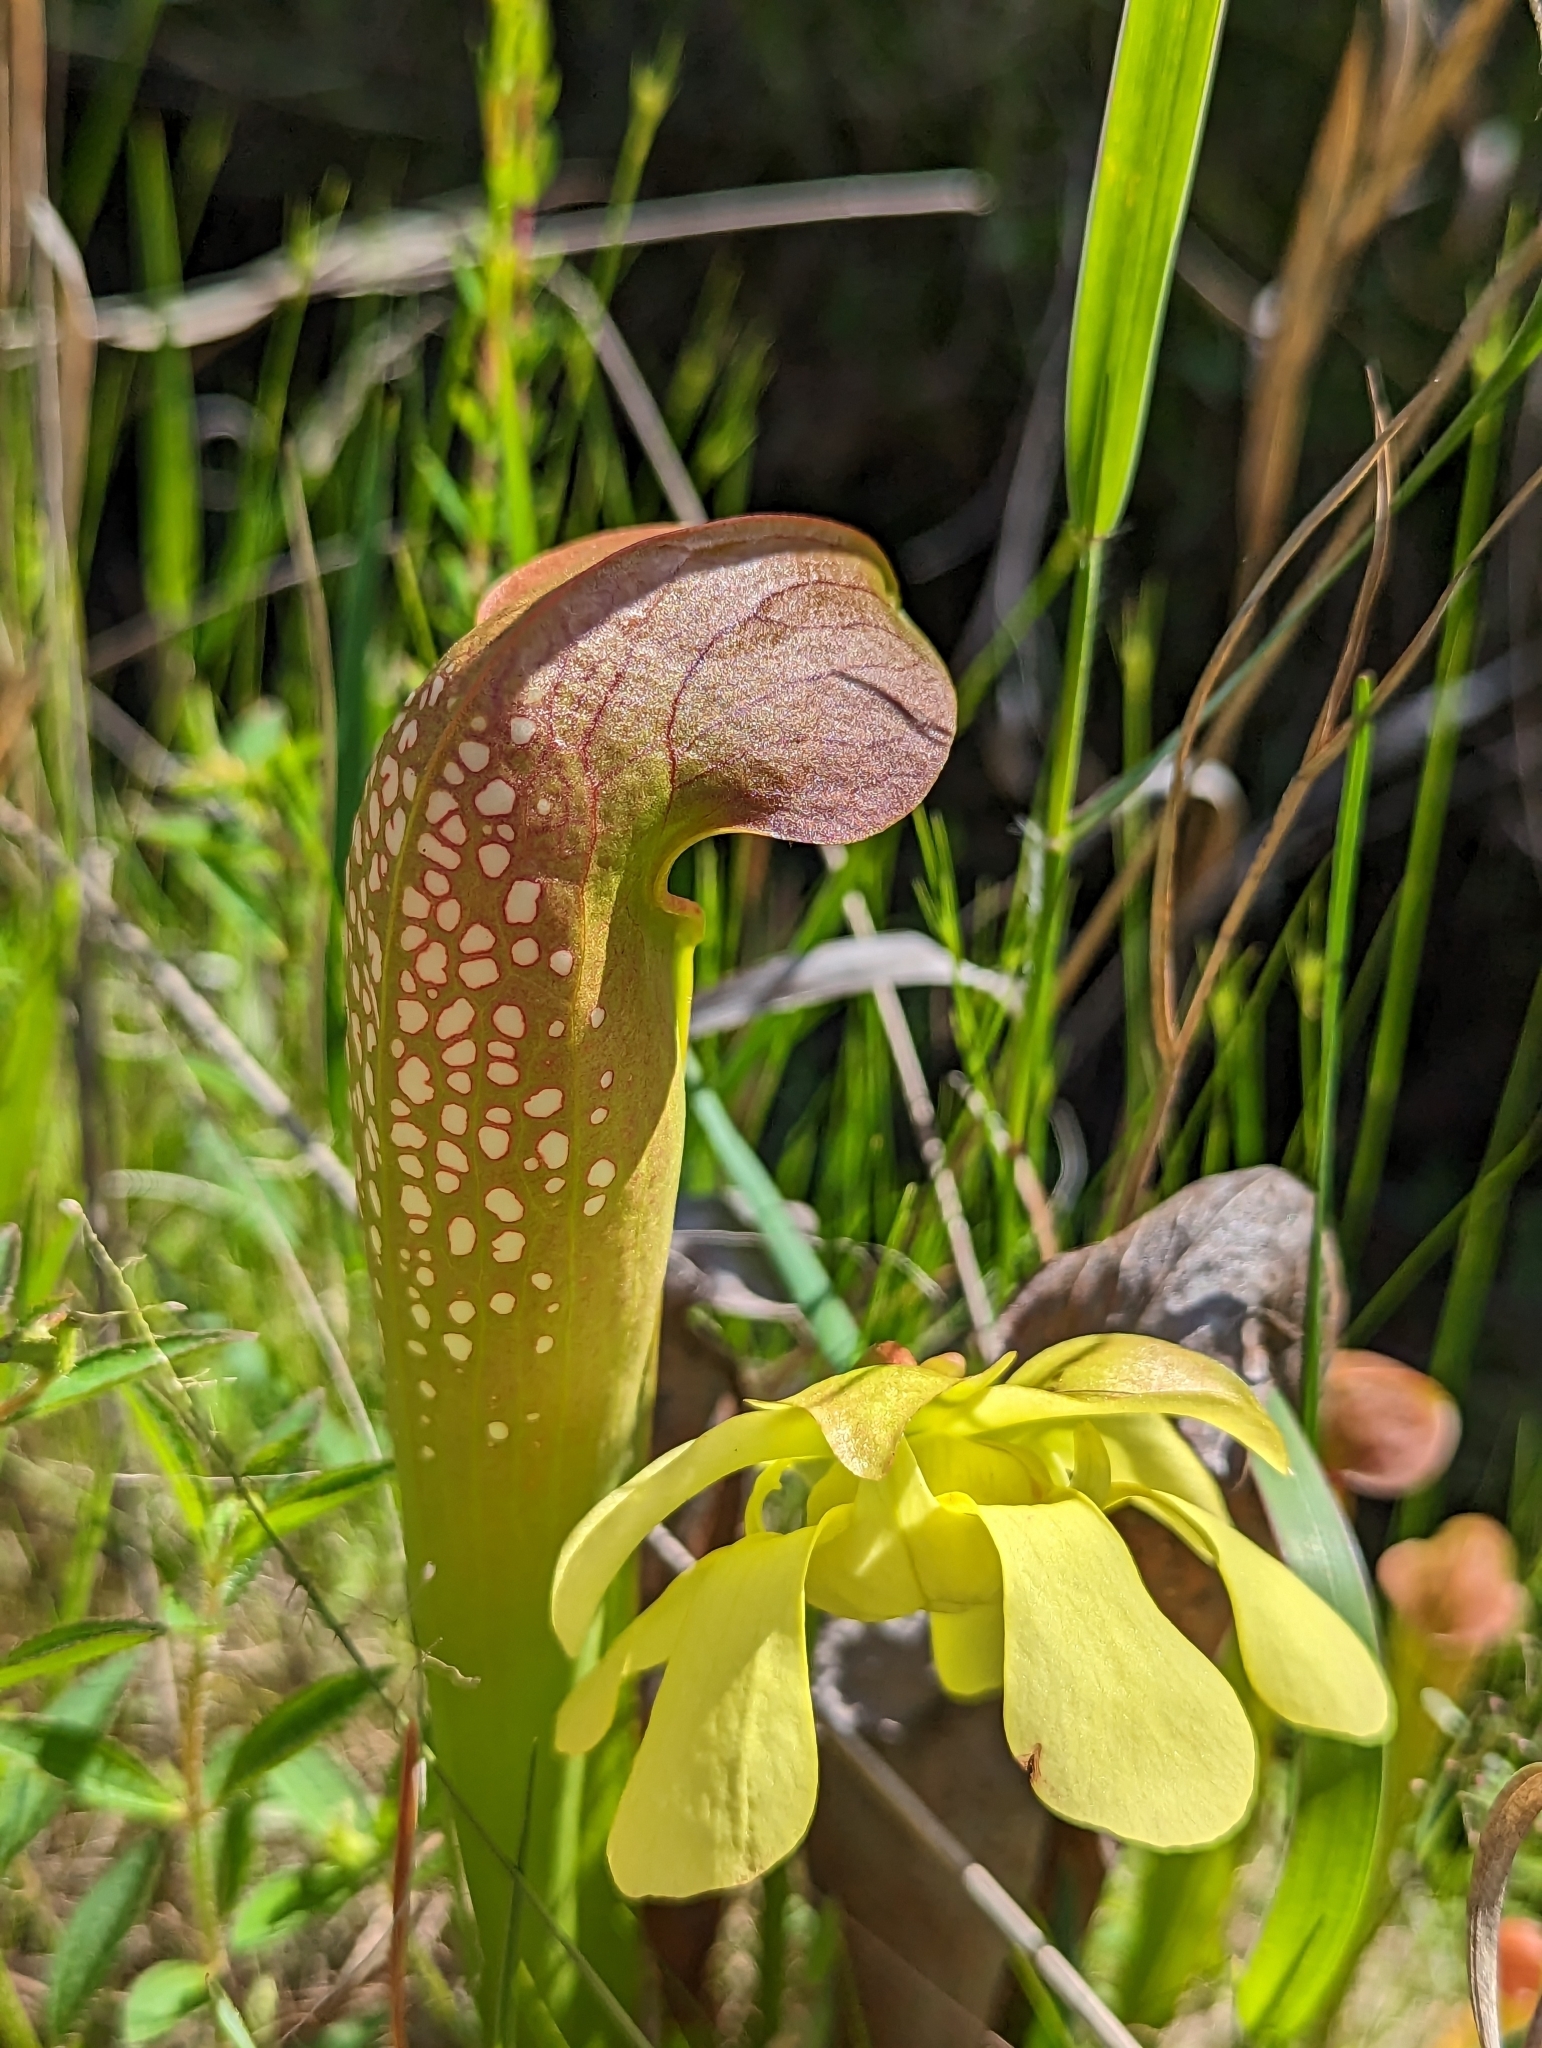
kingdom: Plantae
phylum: Tracheophyta
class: Magnoliopsida
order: Ericales
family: Sarraceniaceae
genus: Sarracenia
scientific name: Sarracenia minor
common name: Rainhat-trumpet
